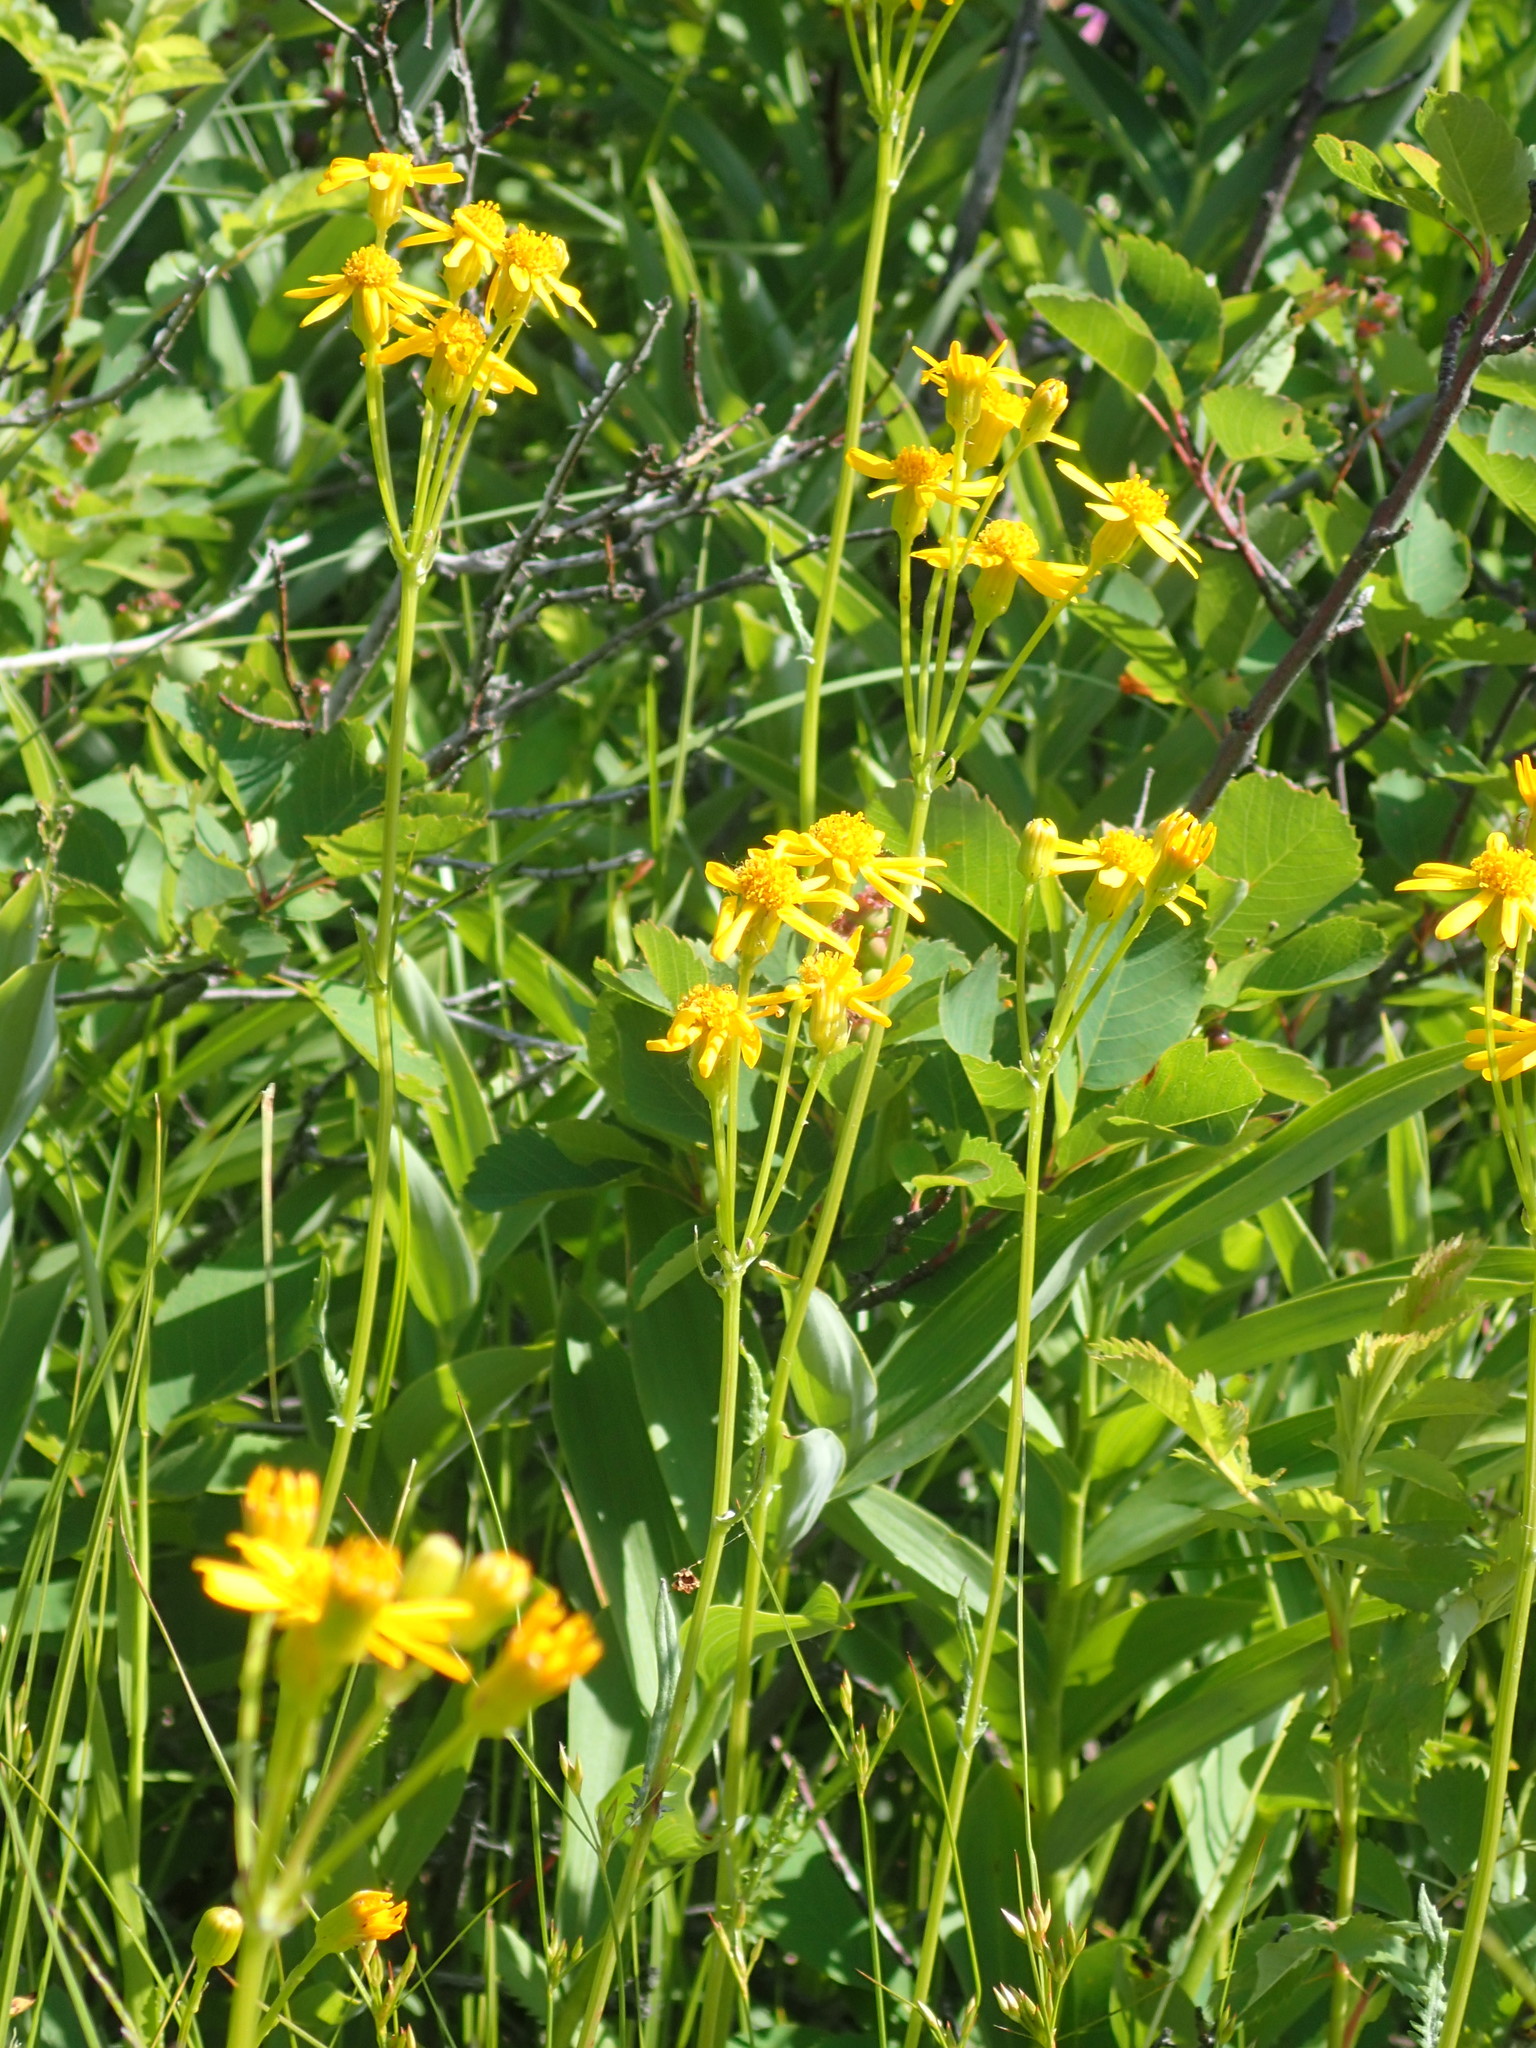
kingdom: Plantae
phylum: Tracheophyta
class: Magnoliopsida
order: Asterales
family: Asteraceae
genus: Packera
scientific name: Packera paupercula
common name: Balsam groundsel
